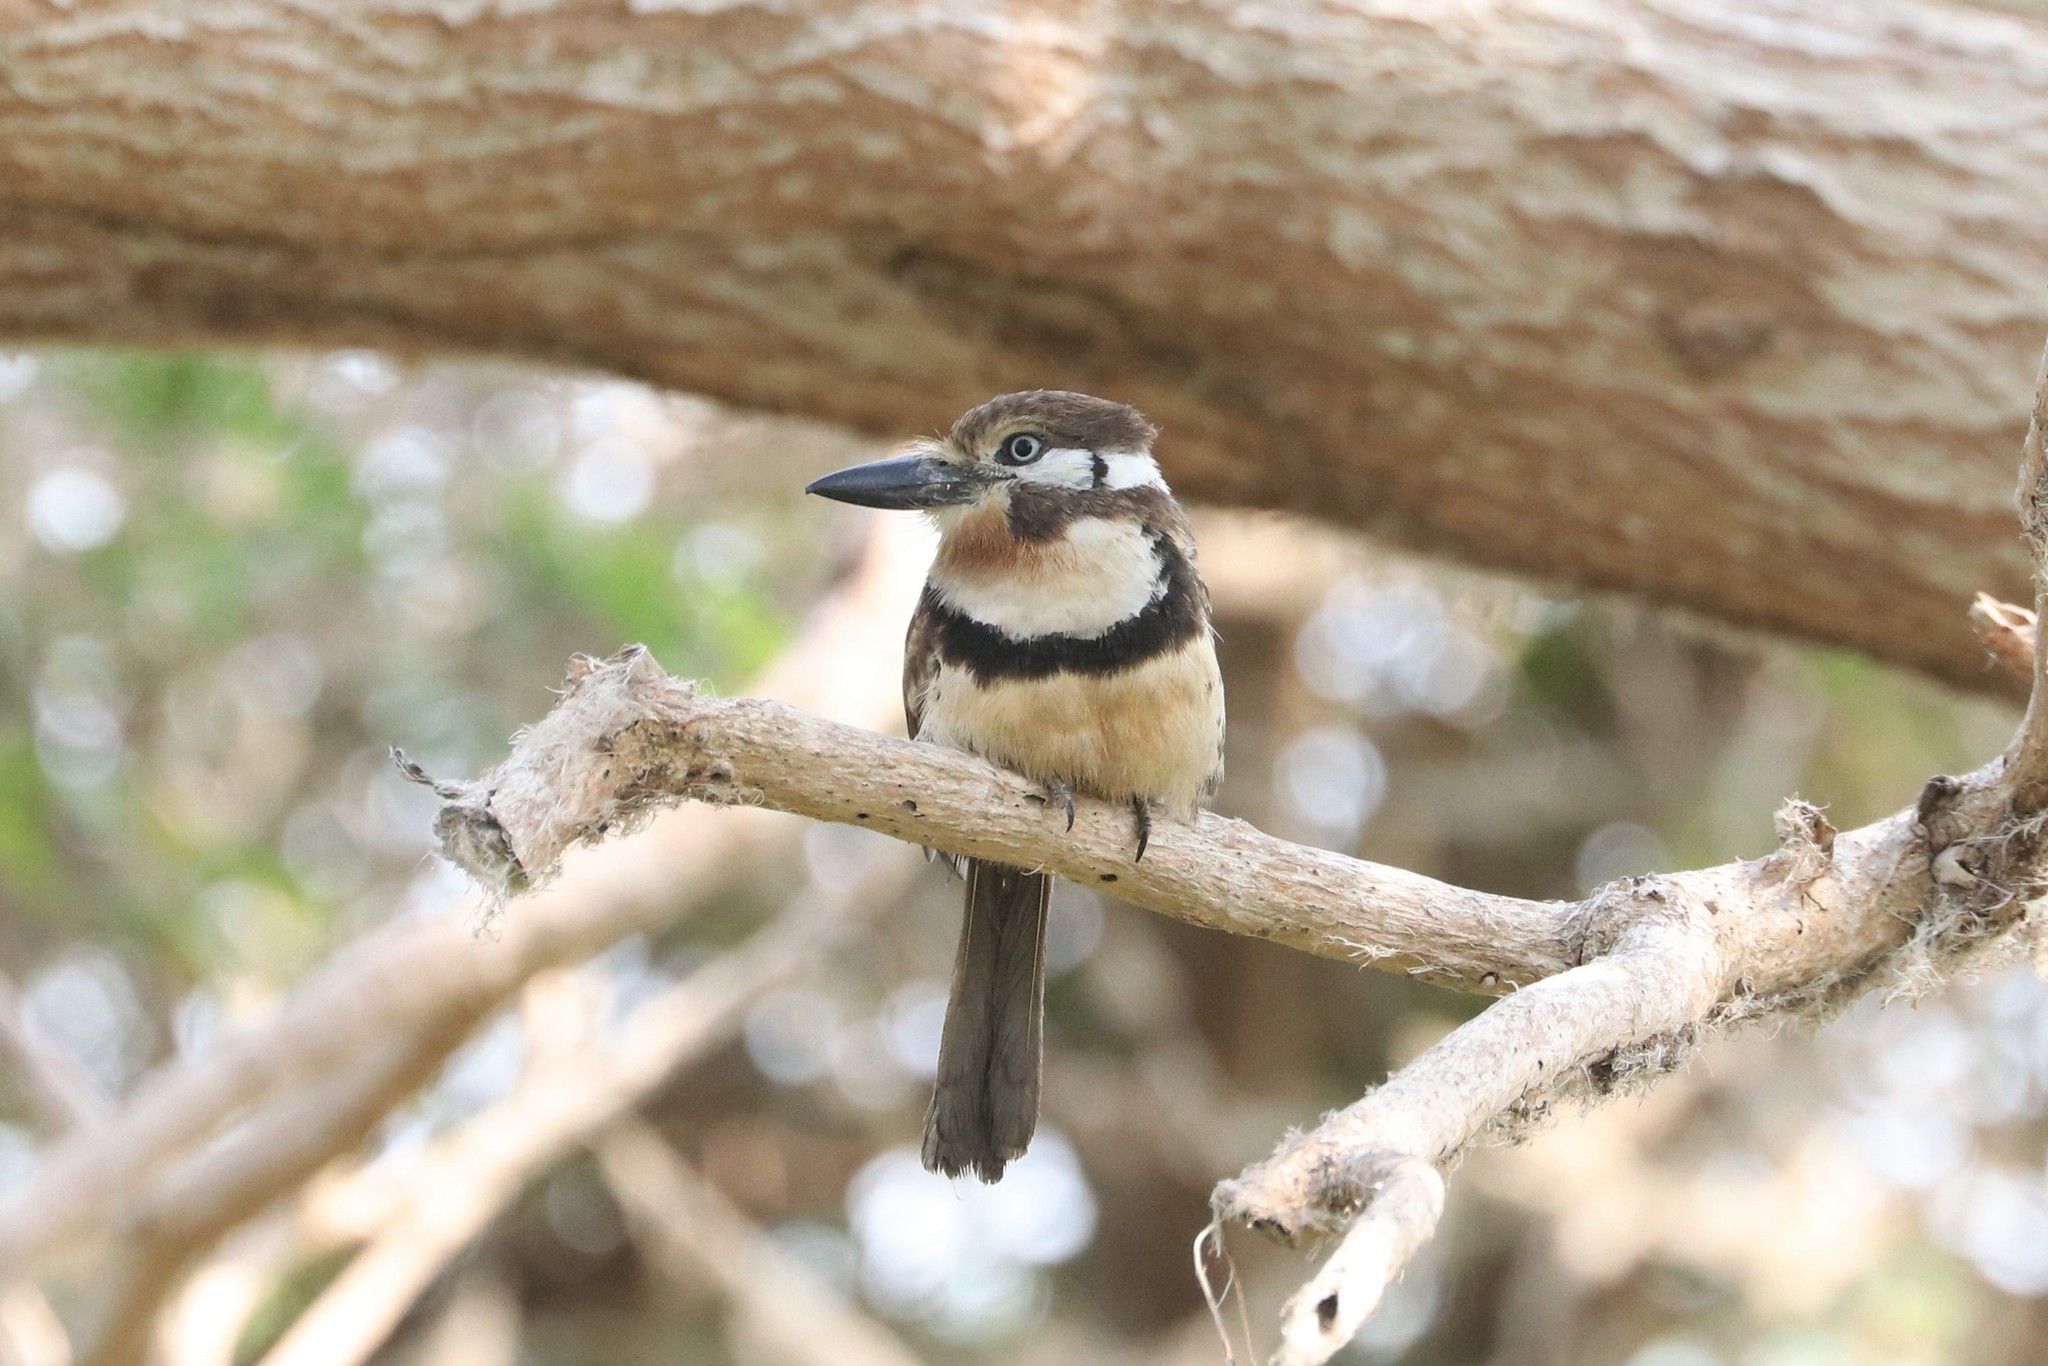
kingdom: Animalia
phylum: Chordata
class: Aves
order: Piciformes
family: Bucconidae
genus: Hypnelus
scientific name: Hypnelus ruficollis
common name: Russet-throated puffbird
